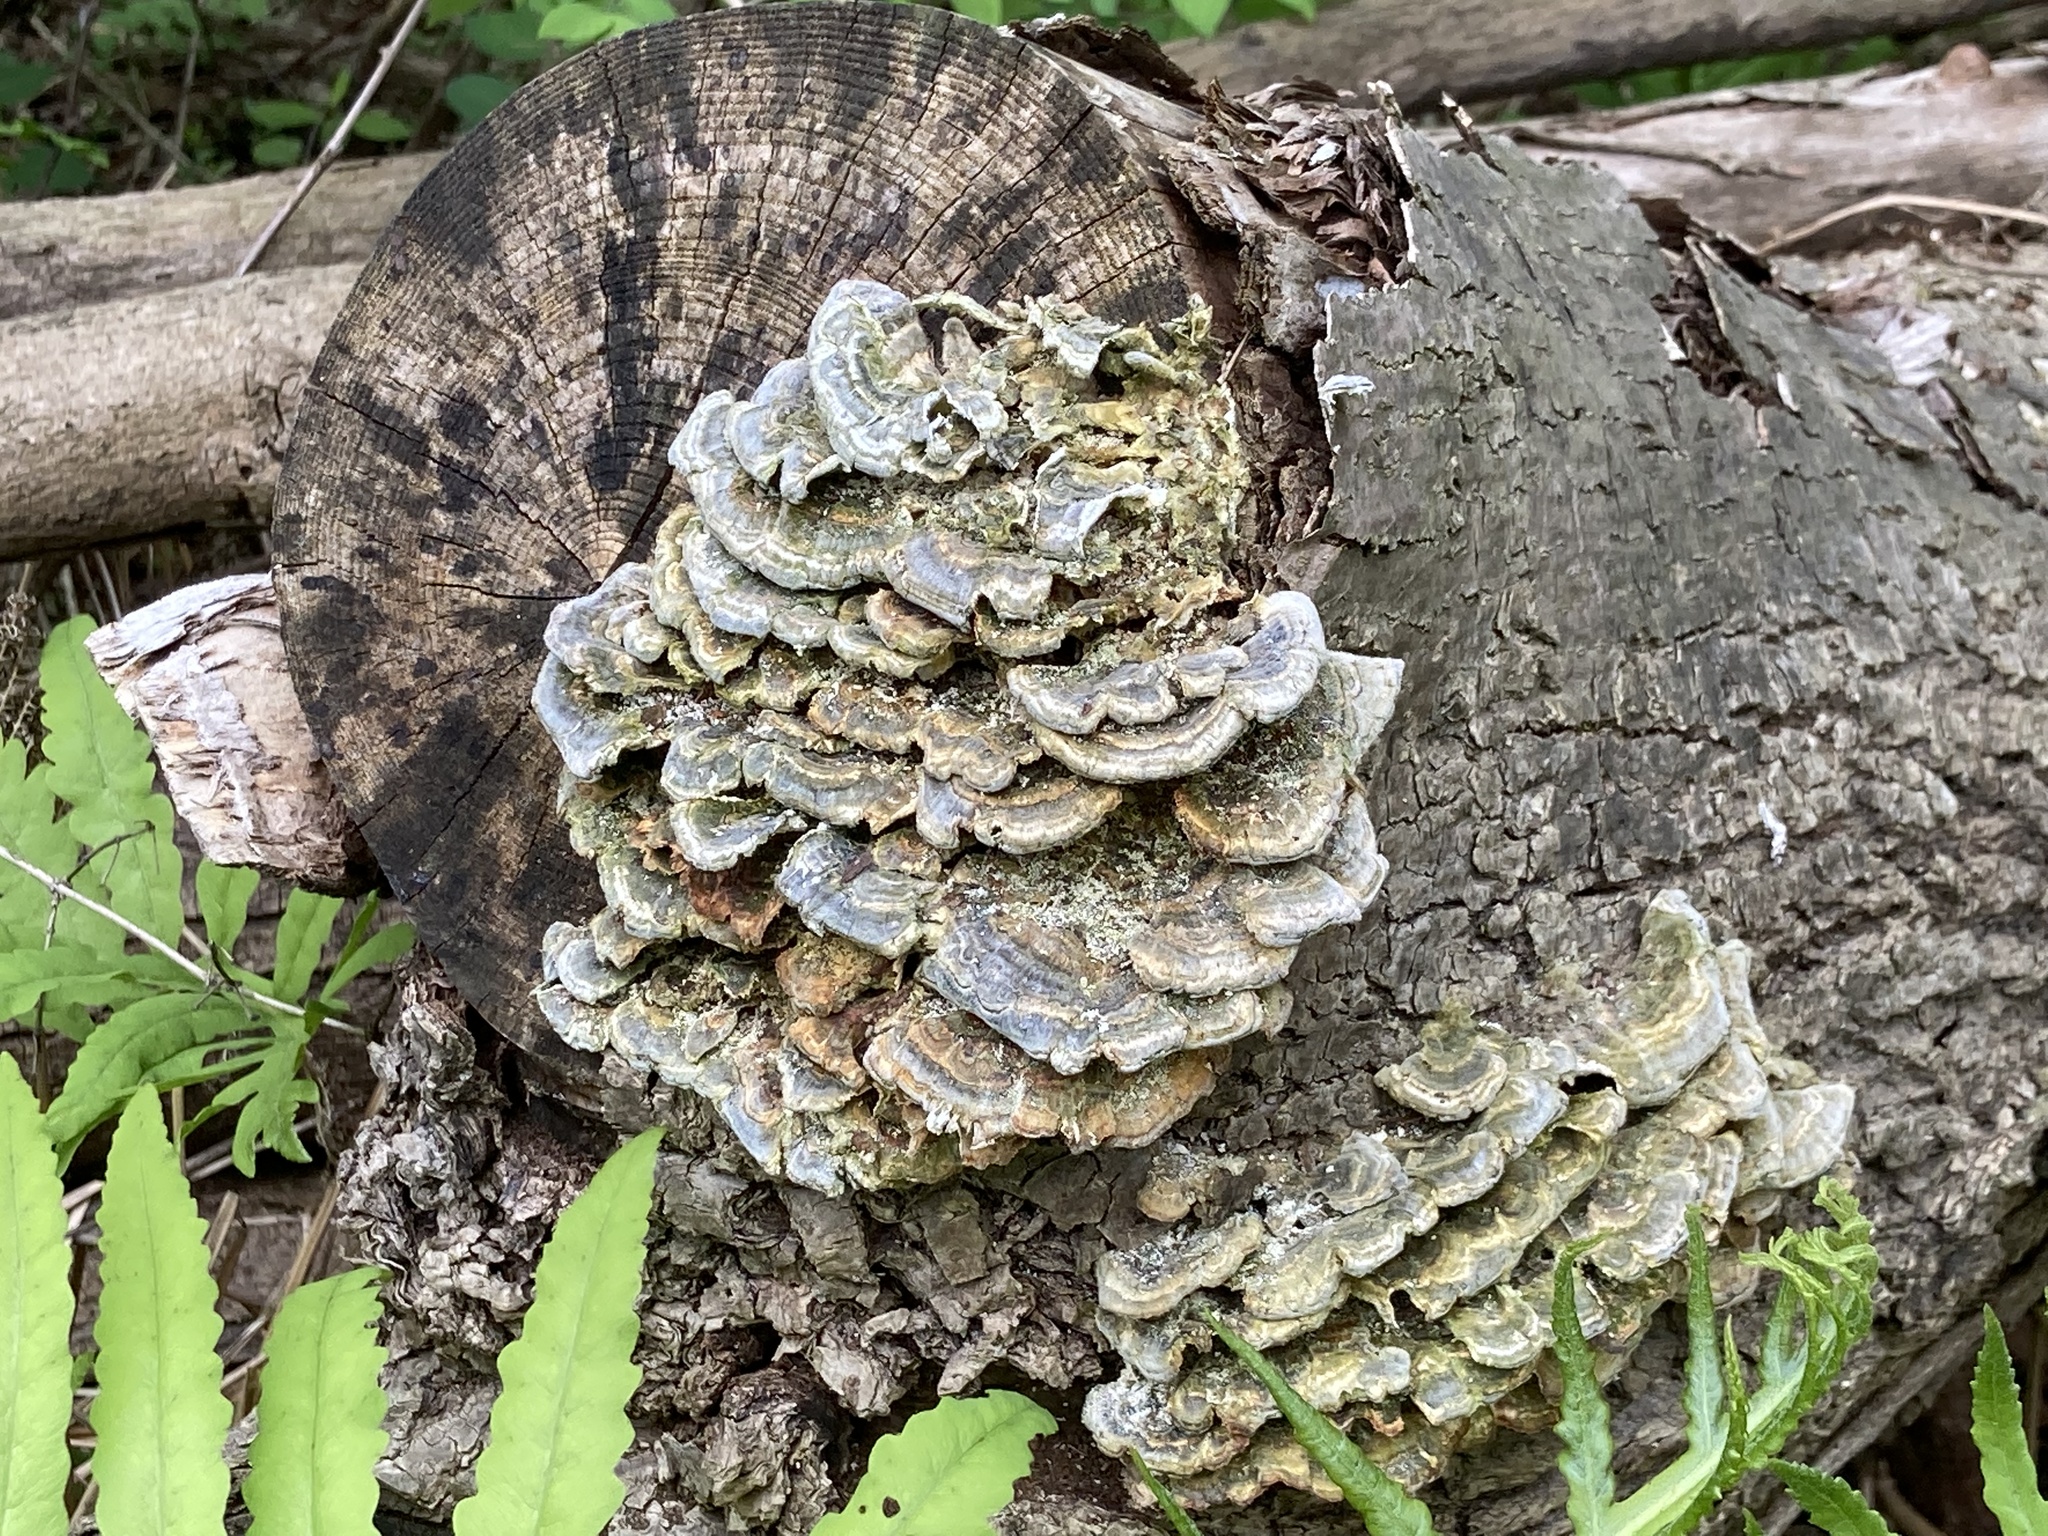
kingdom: Fungi
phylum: Basidiomycota
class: Agaricomycetes
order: Polyporales
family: Polyporaceae
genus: Trametes
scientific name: Trametes versicolor
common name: Turkeytail
